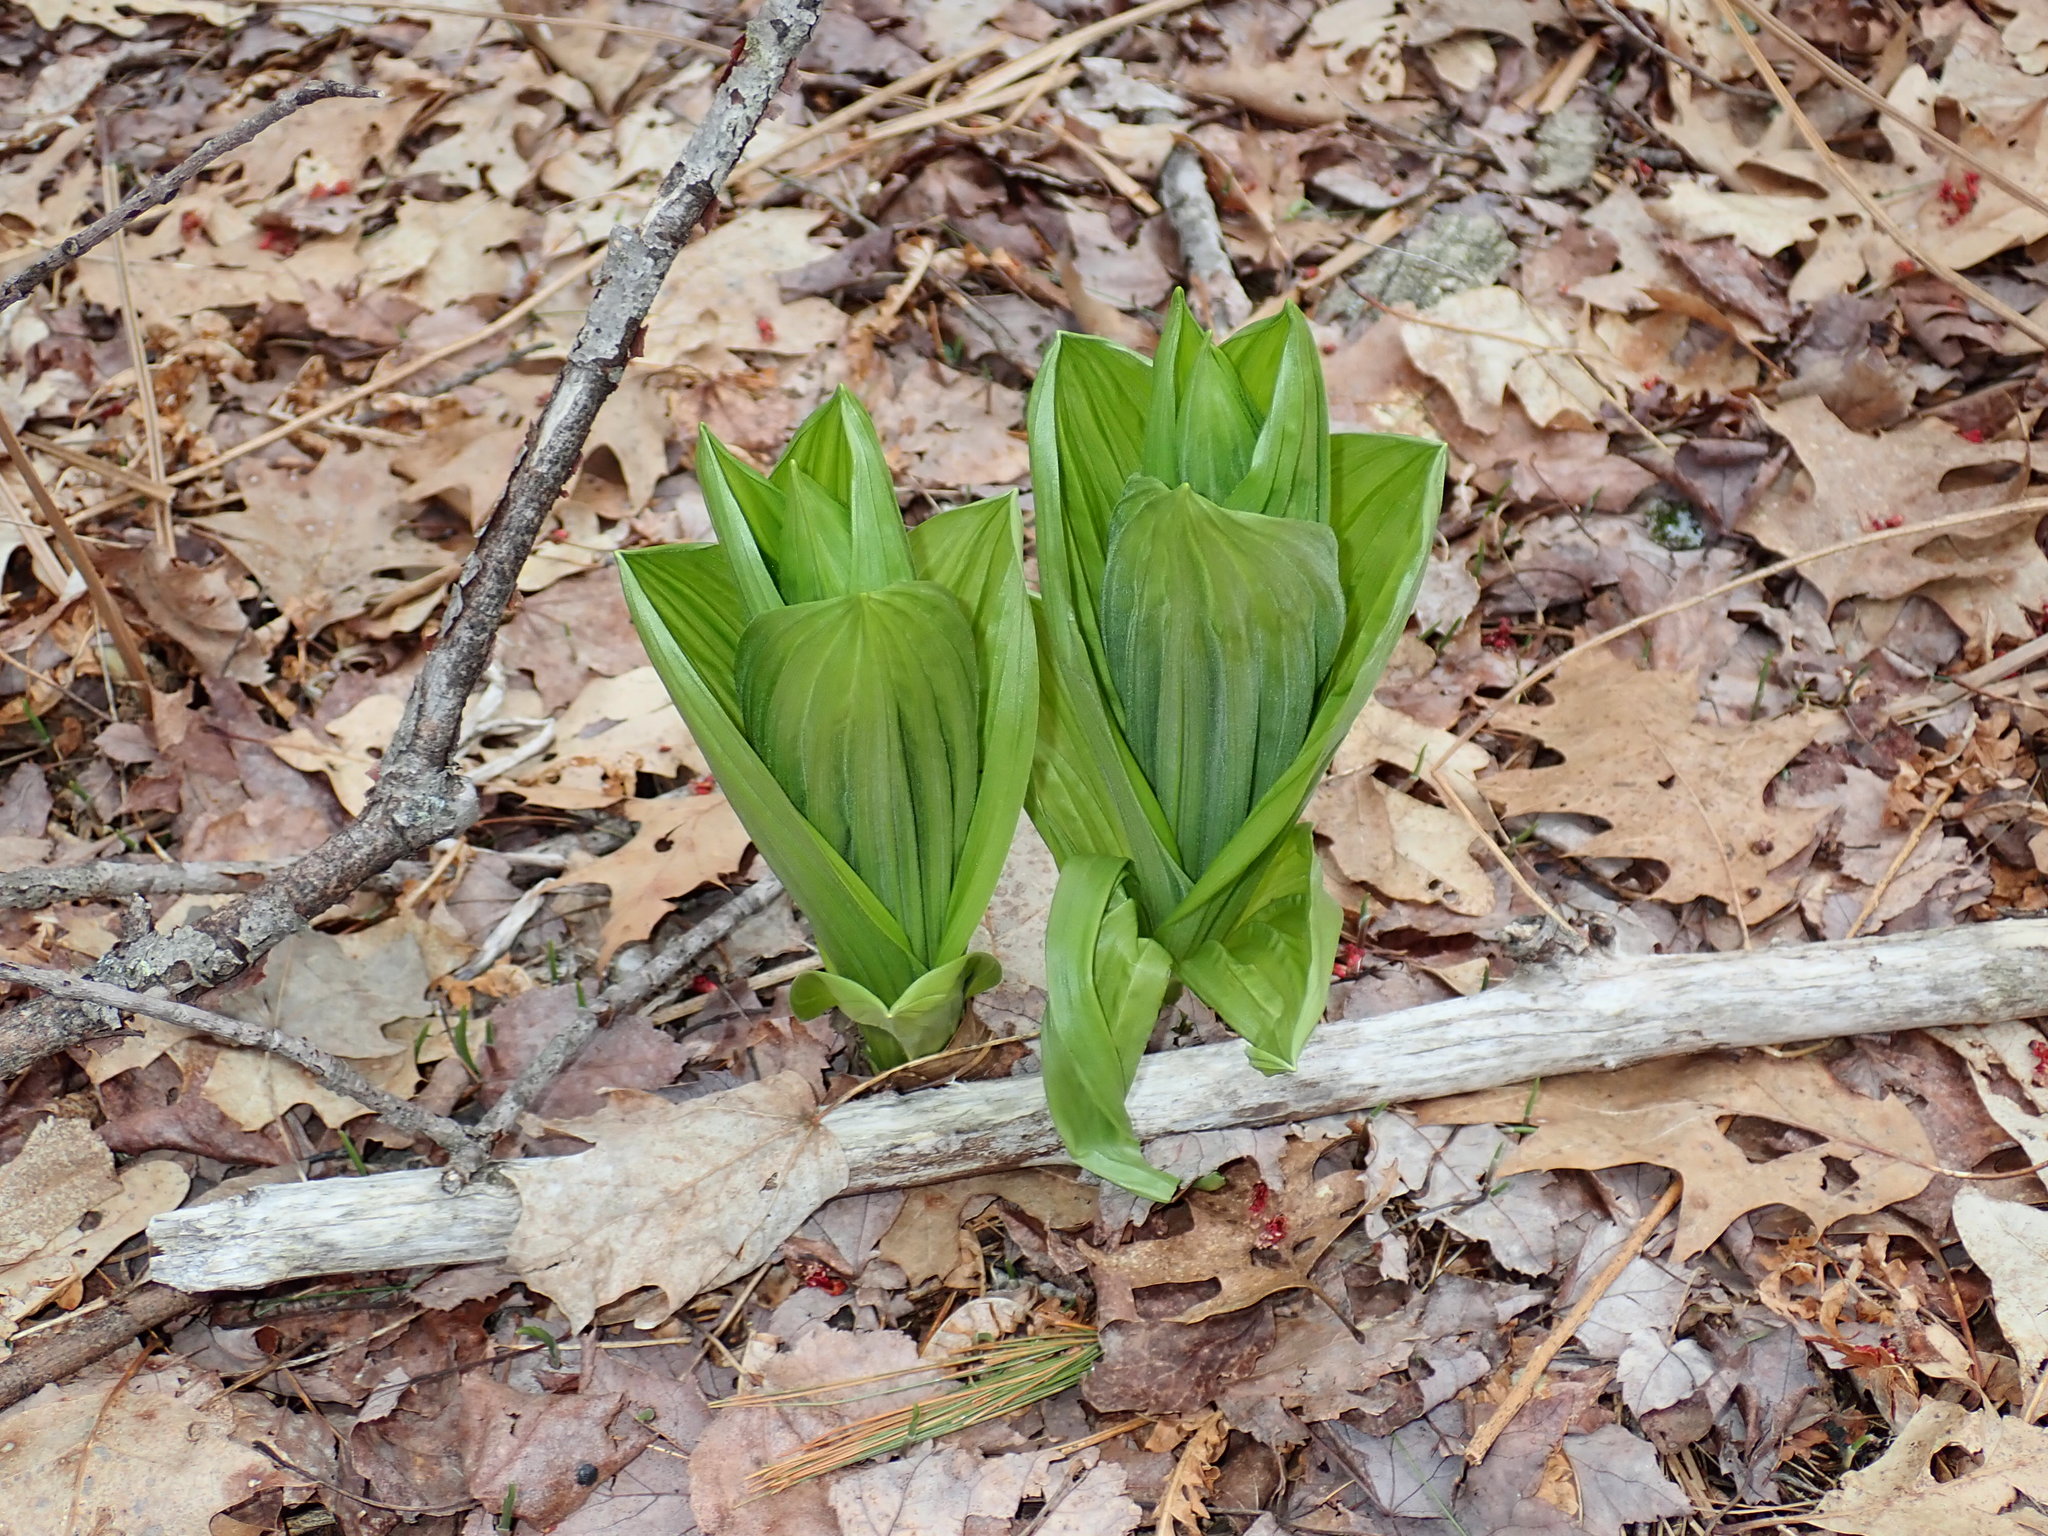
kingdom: Plantae
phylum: Tracheophyta
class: Liliopsida
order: Liliales
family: Melanthiaceae
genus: Veratrum
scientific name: Veratrum viride
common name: American false hellebore
